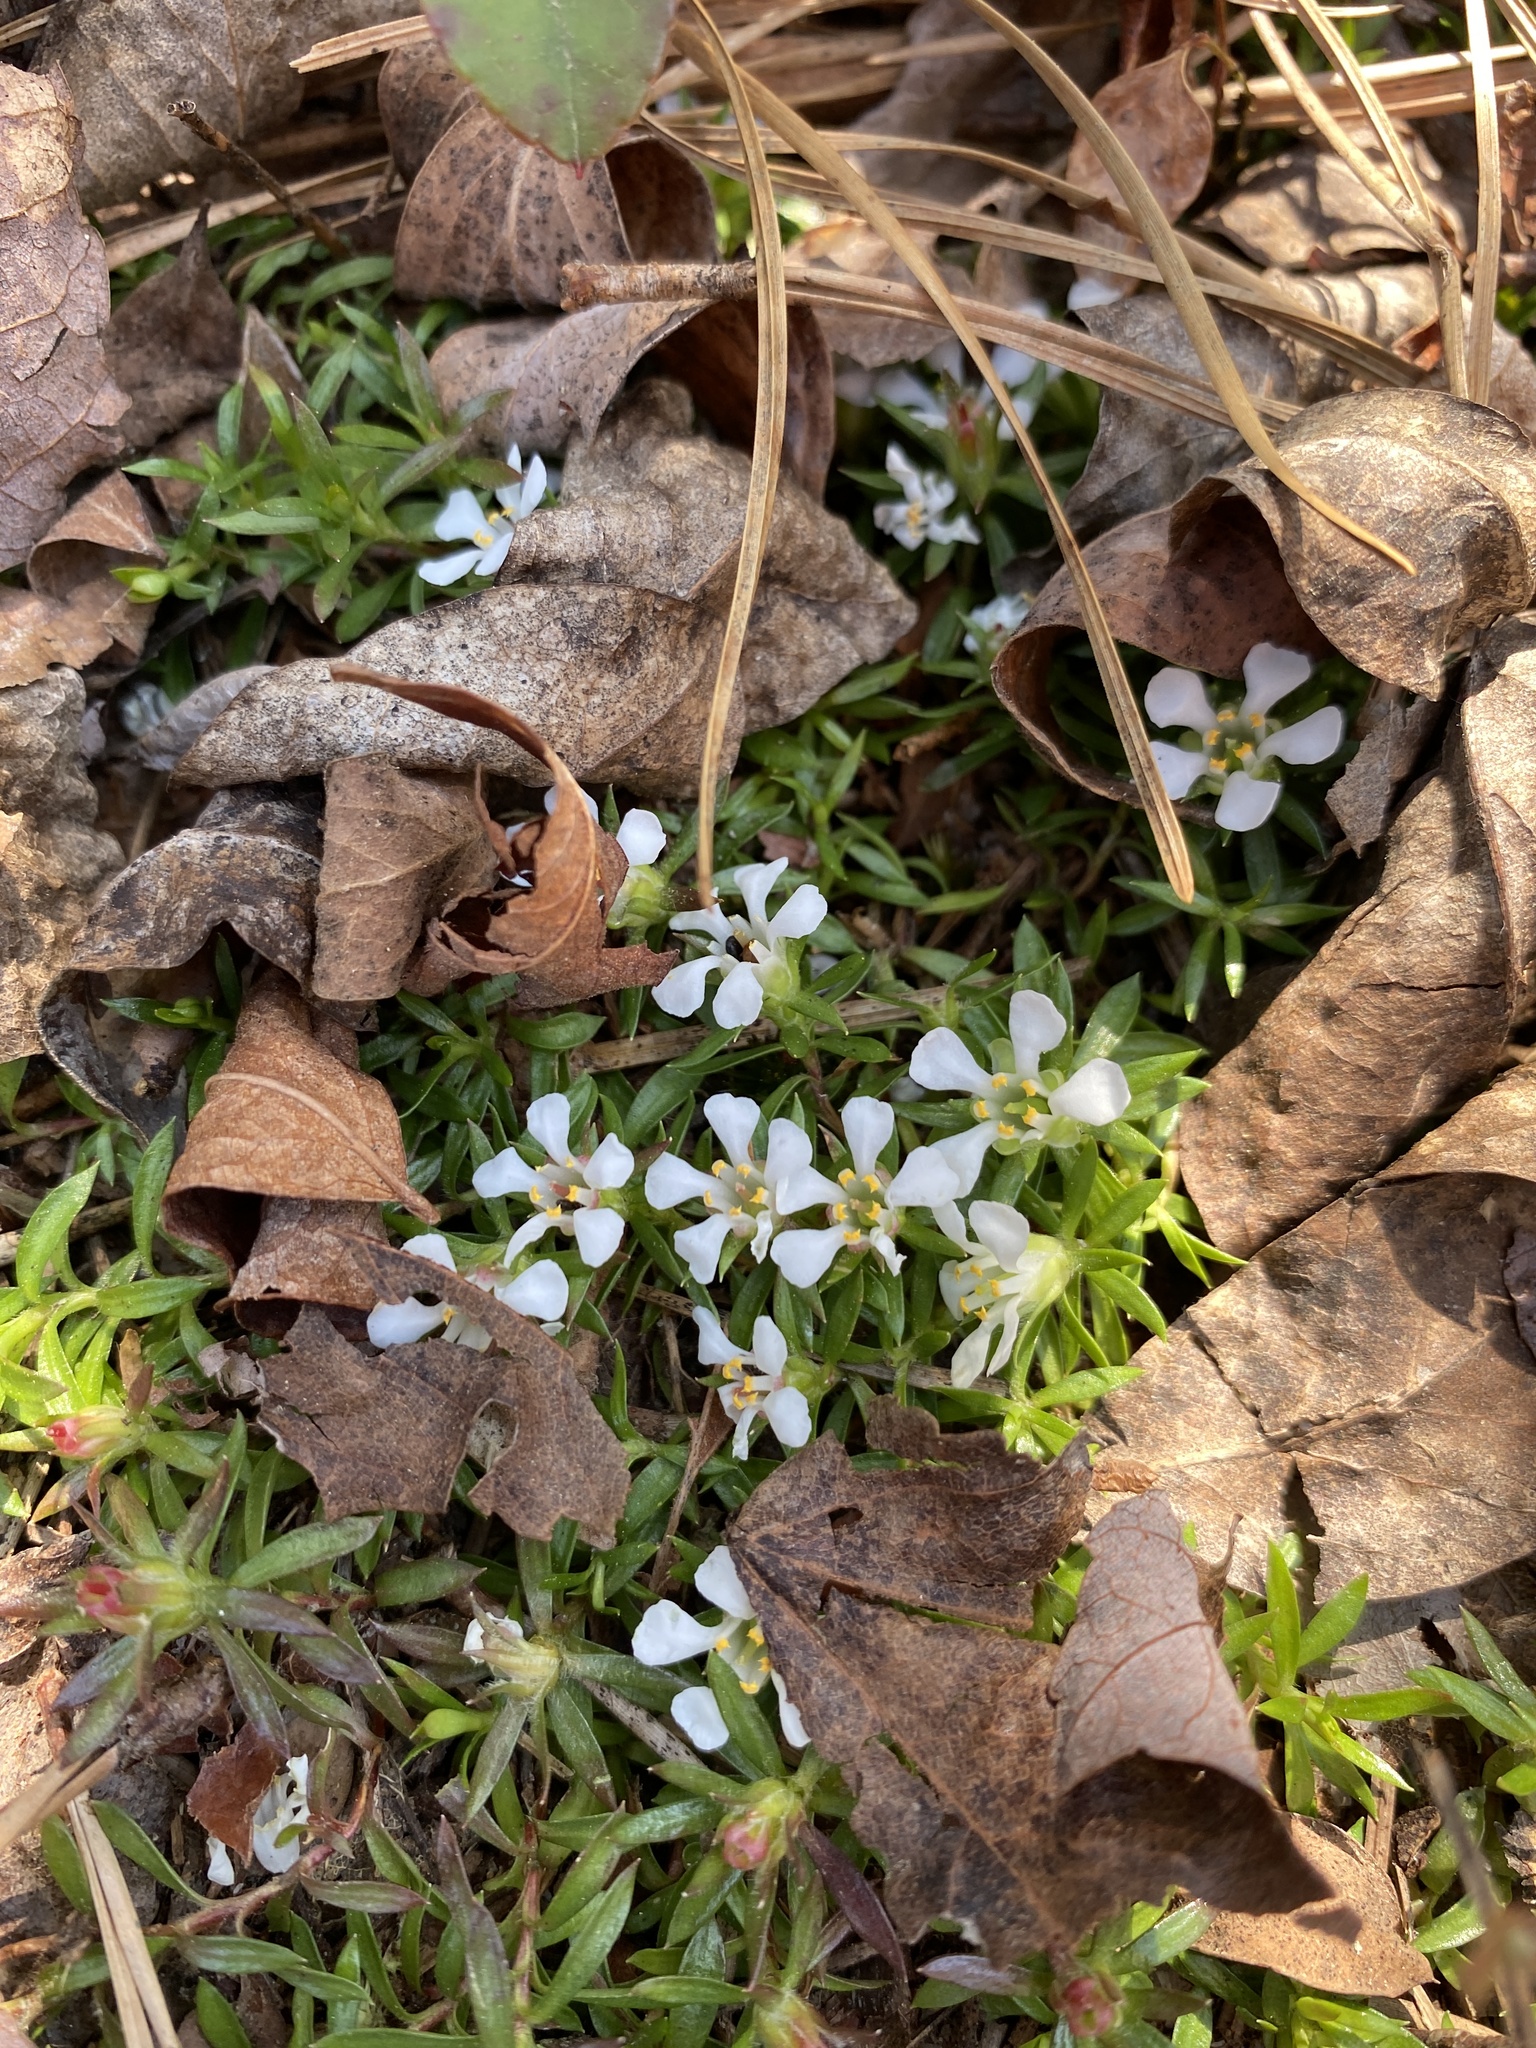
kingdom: Plantae
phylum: Tracheophyta
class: Magnoliopsida
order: Ericales
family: Diapensiaceae
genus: Pyxidanthera
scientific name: Pyxidanthera barbulata
